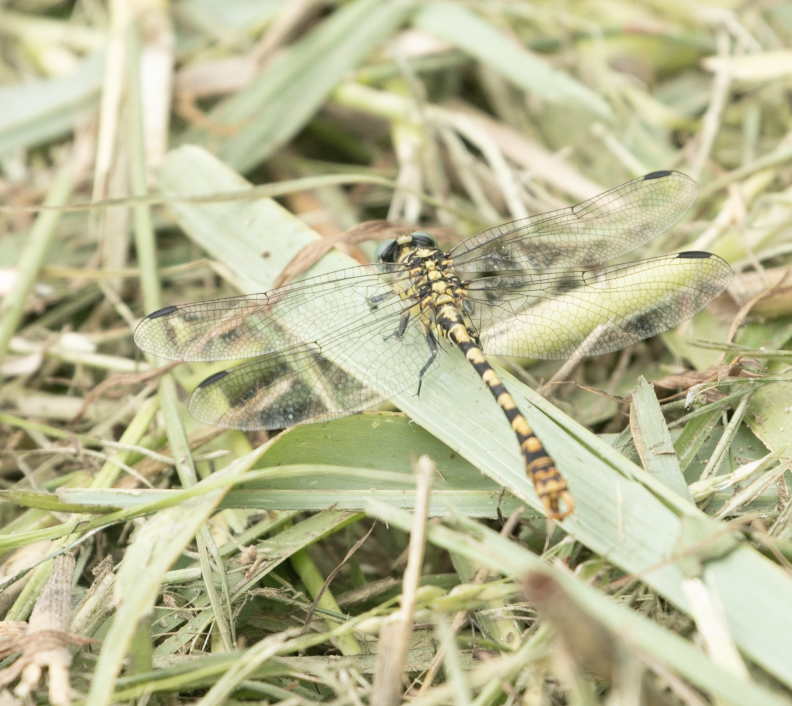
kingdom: Animalia
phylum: Arthropoda
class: Insecta
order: Odonata
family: Gomphidae
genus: Onychogomphus
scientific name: Onychogomphus forcipatus
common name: Small pincertail
